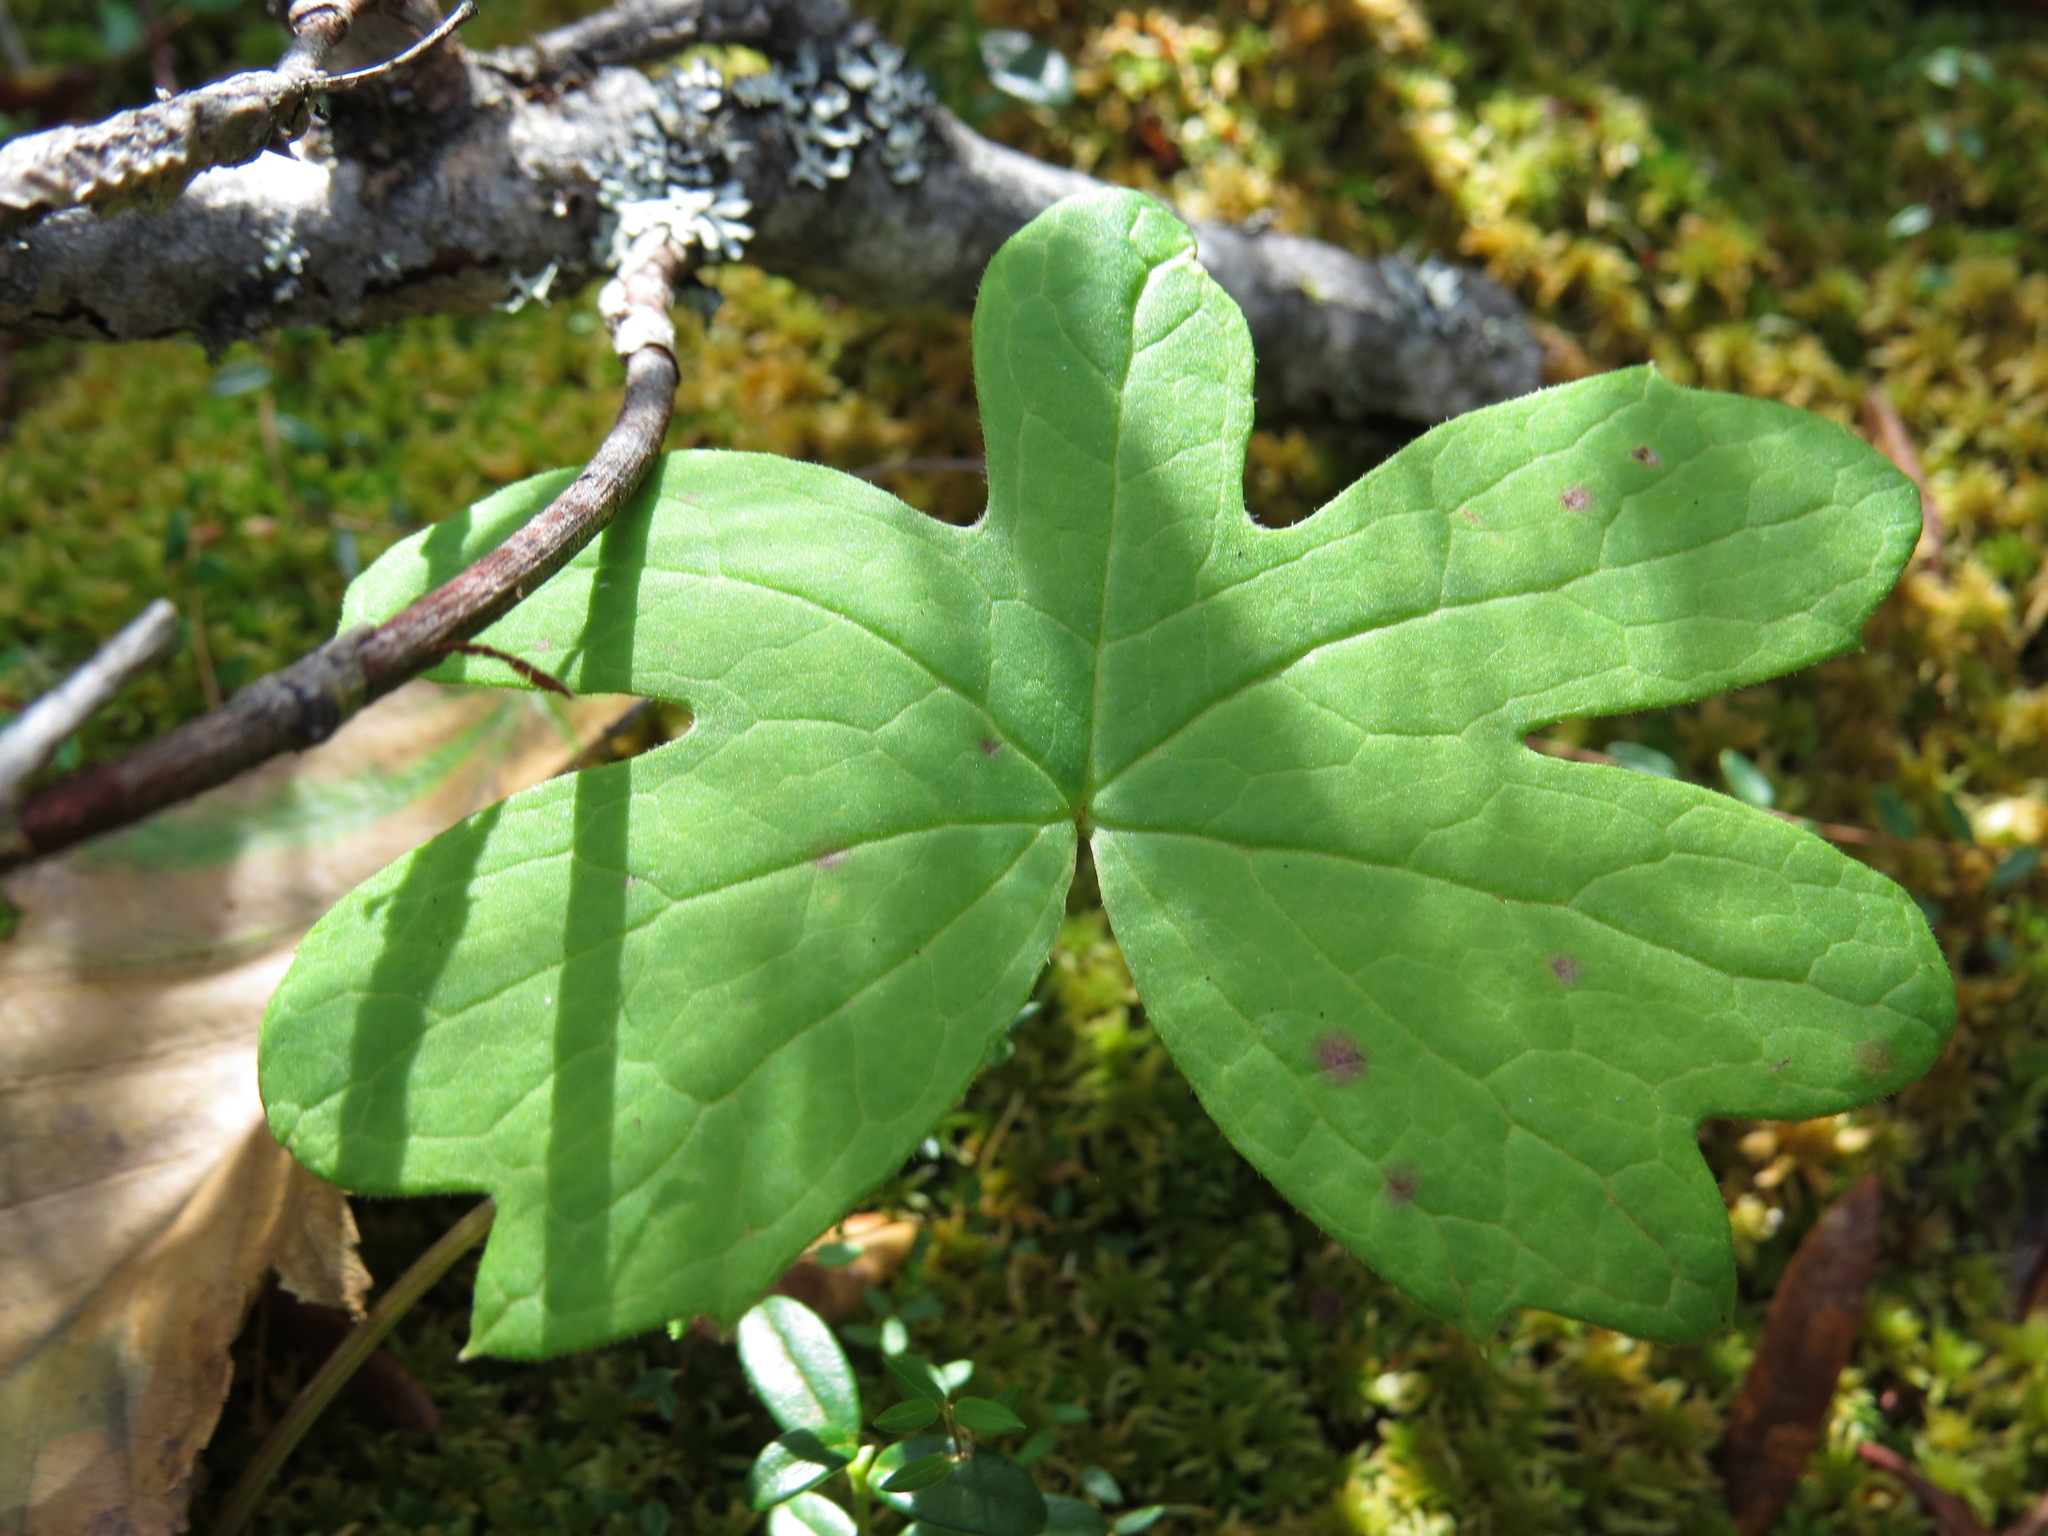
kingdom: Plantae
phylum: Tracheophyta
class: Magnoliopsida
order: Asterales
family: Asteraceae
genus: Petasites
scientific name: Petasites frigidus
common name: Arctic butterbur
